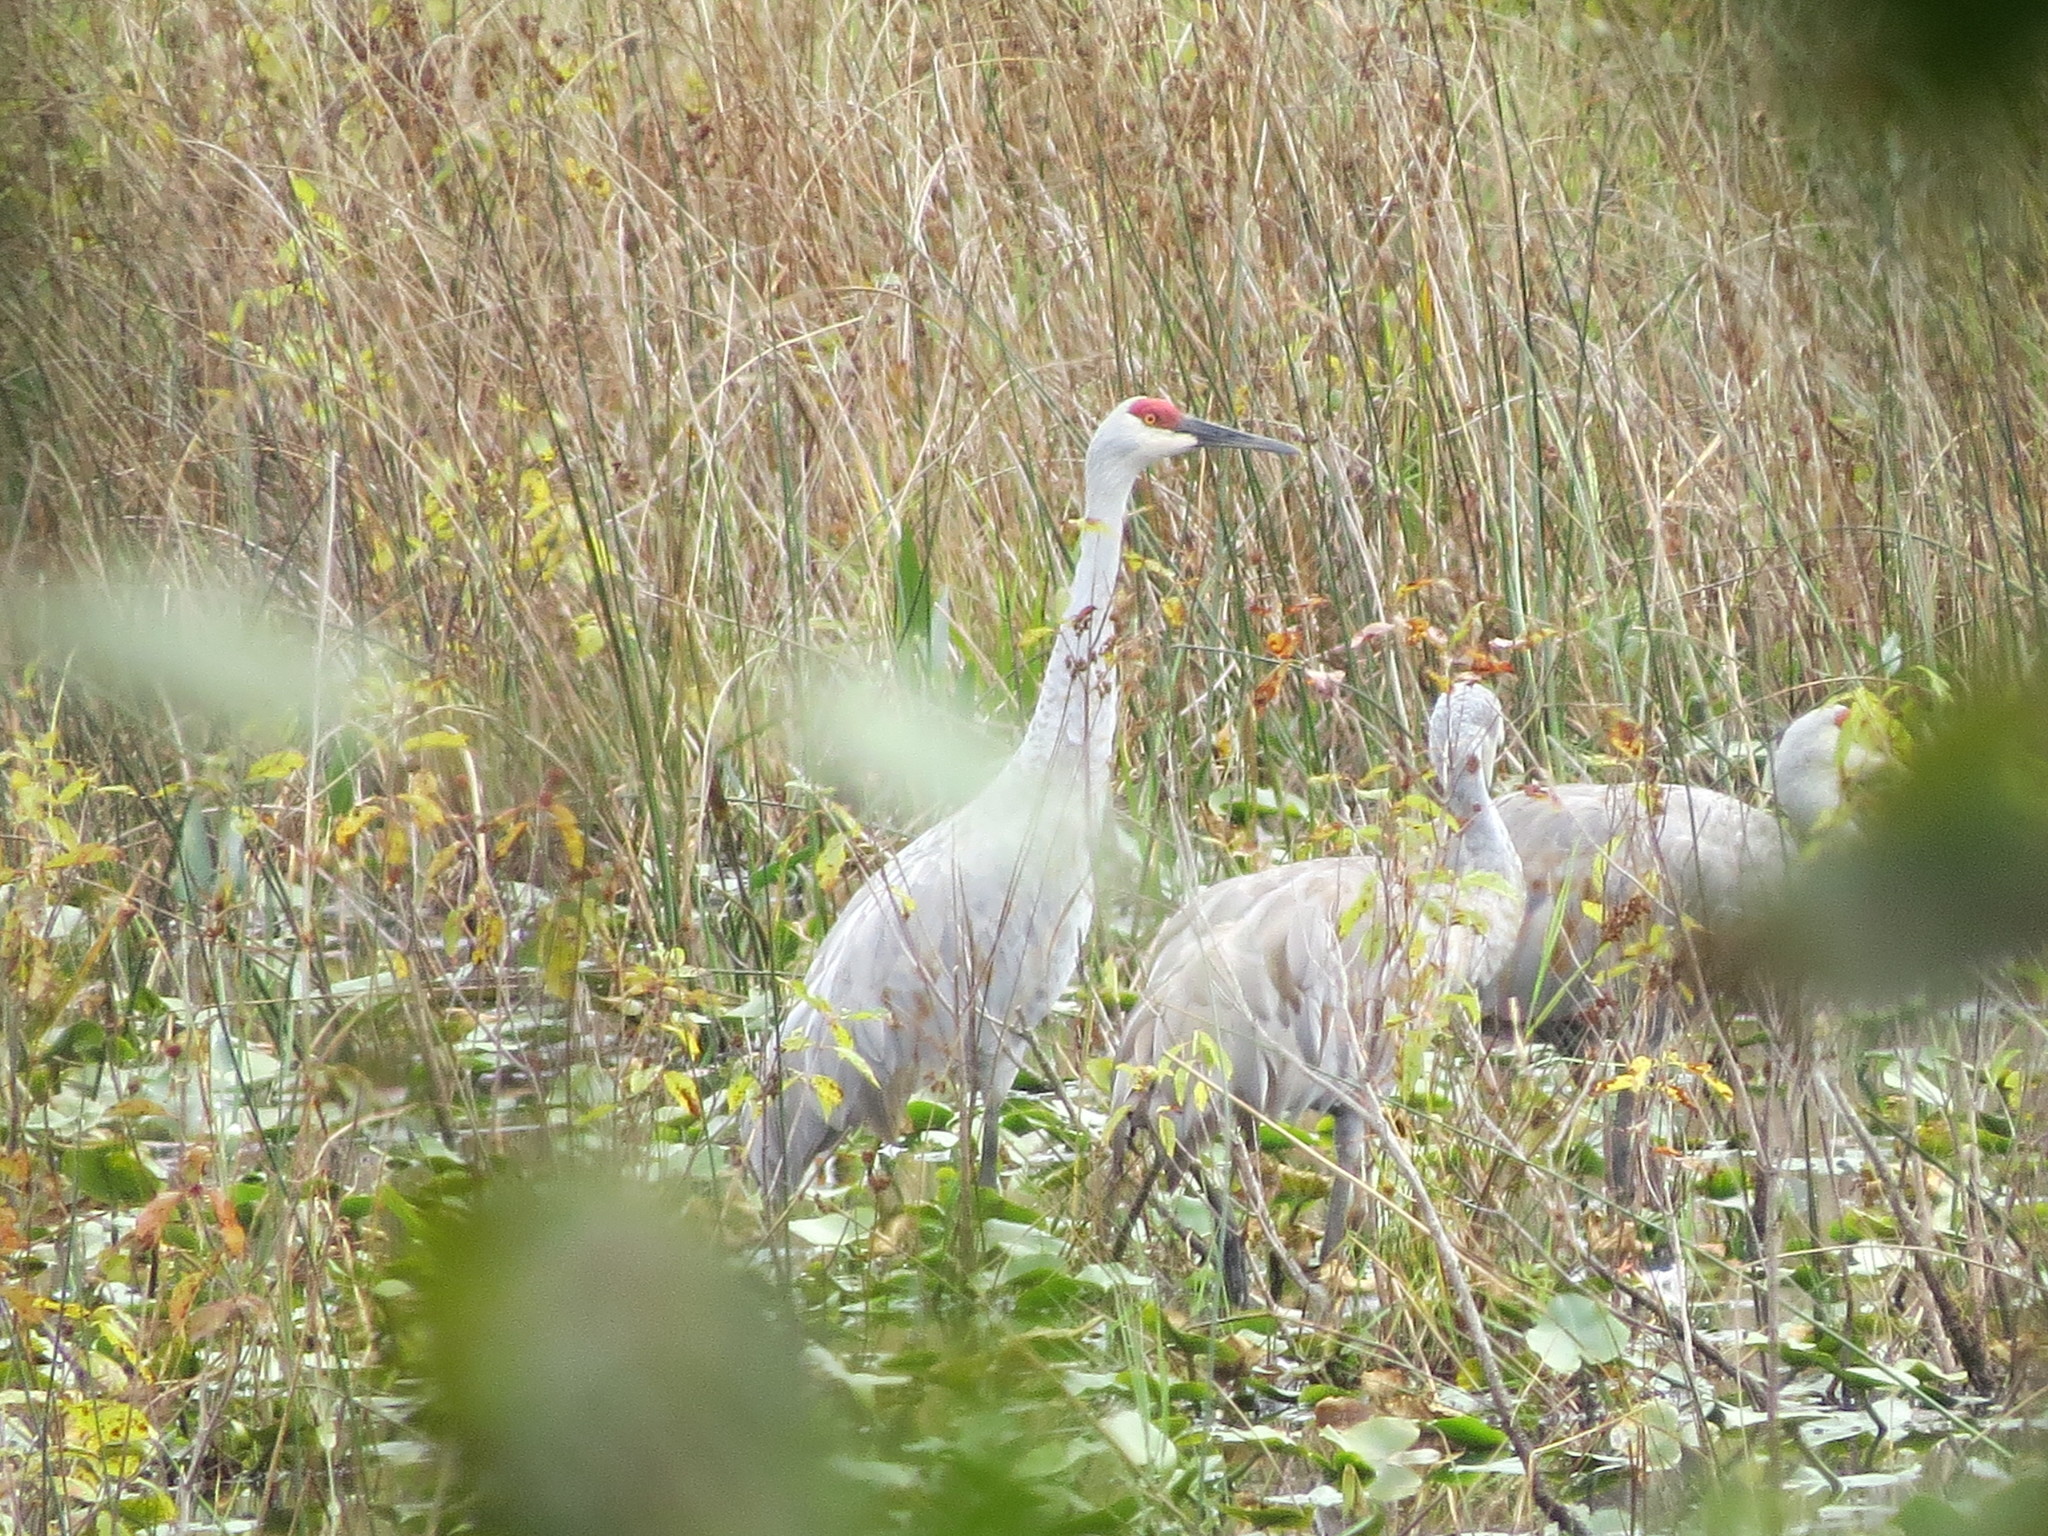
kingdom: Animalia
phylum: Chordata
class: Aves
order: Gruiformes
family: Gruidae
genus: Grus
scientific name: Grus canadensis
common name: Sandhill crane
